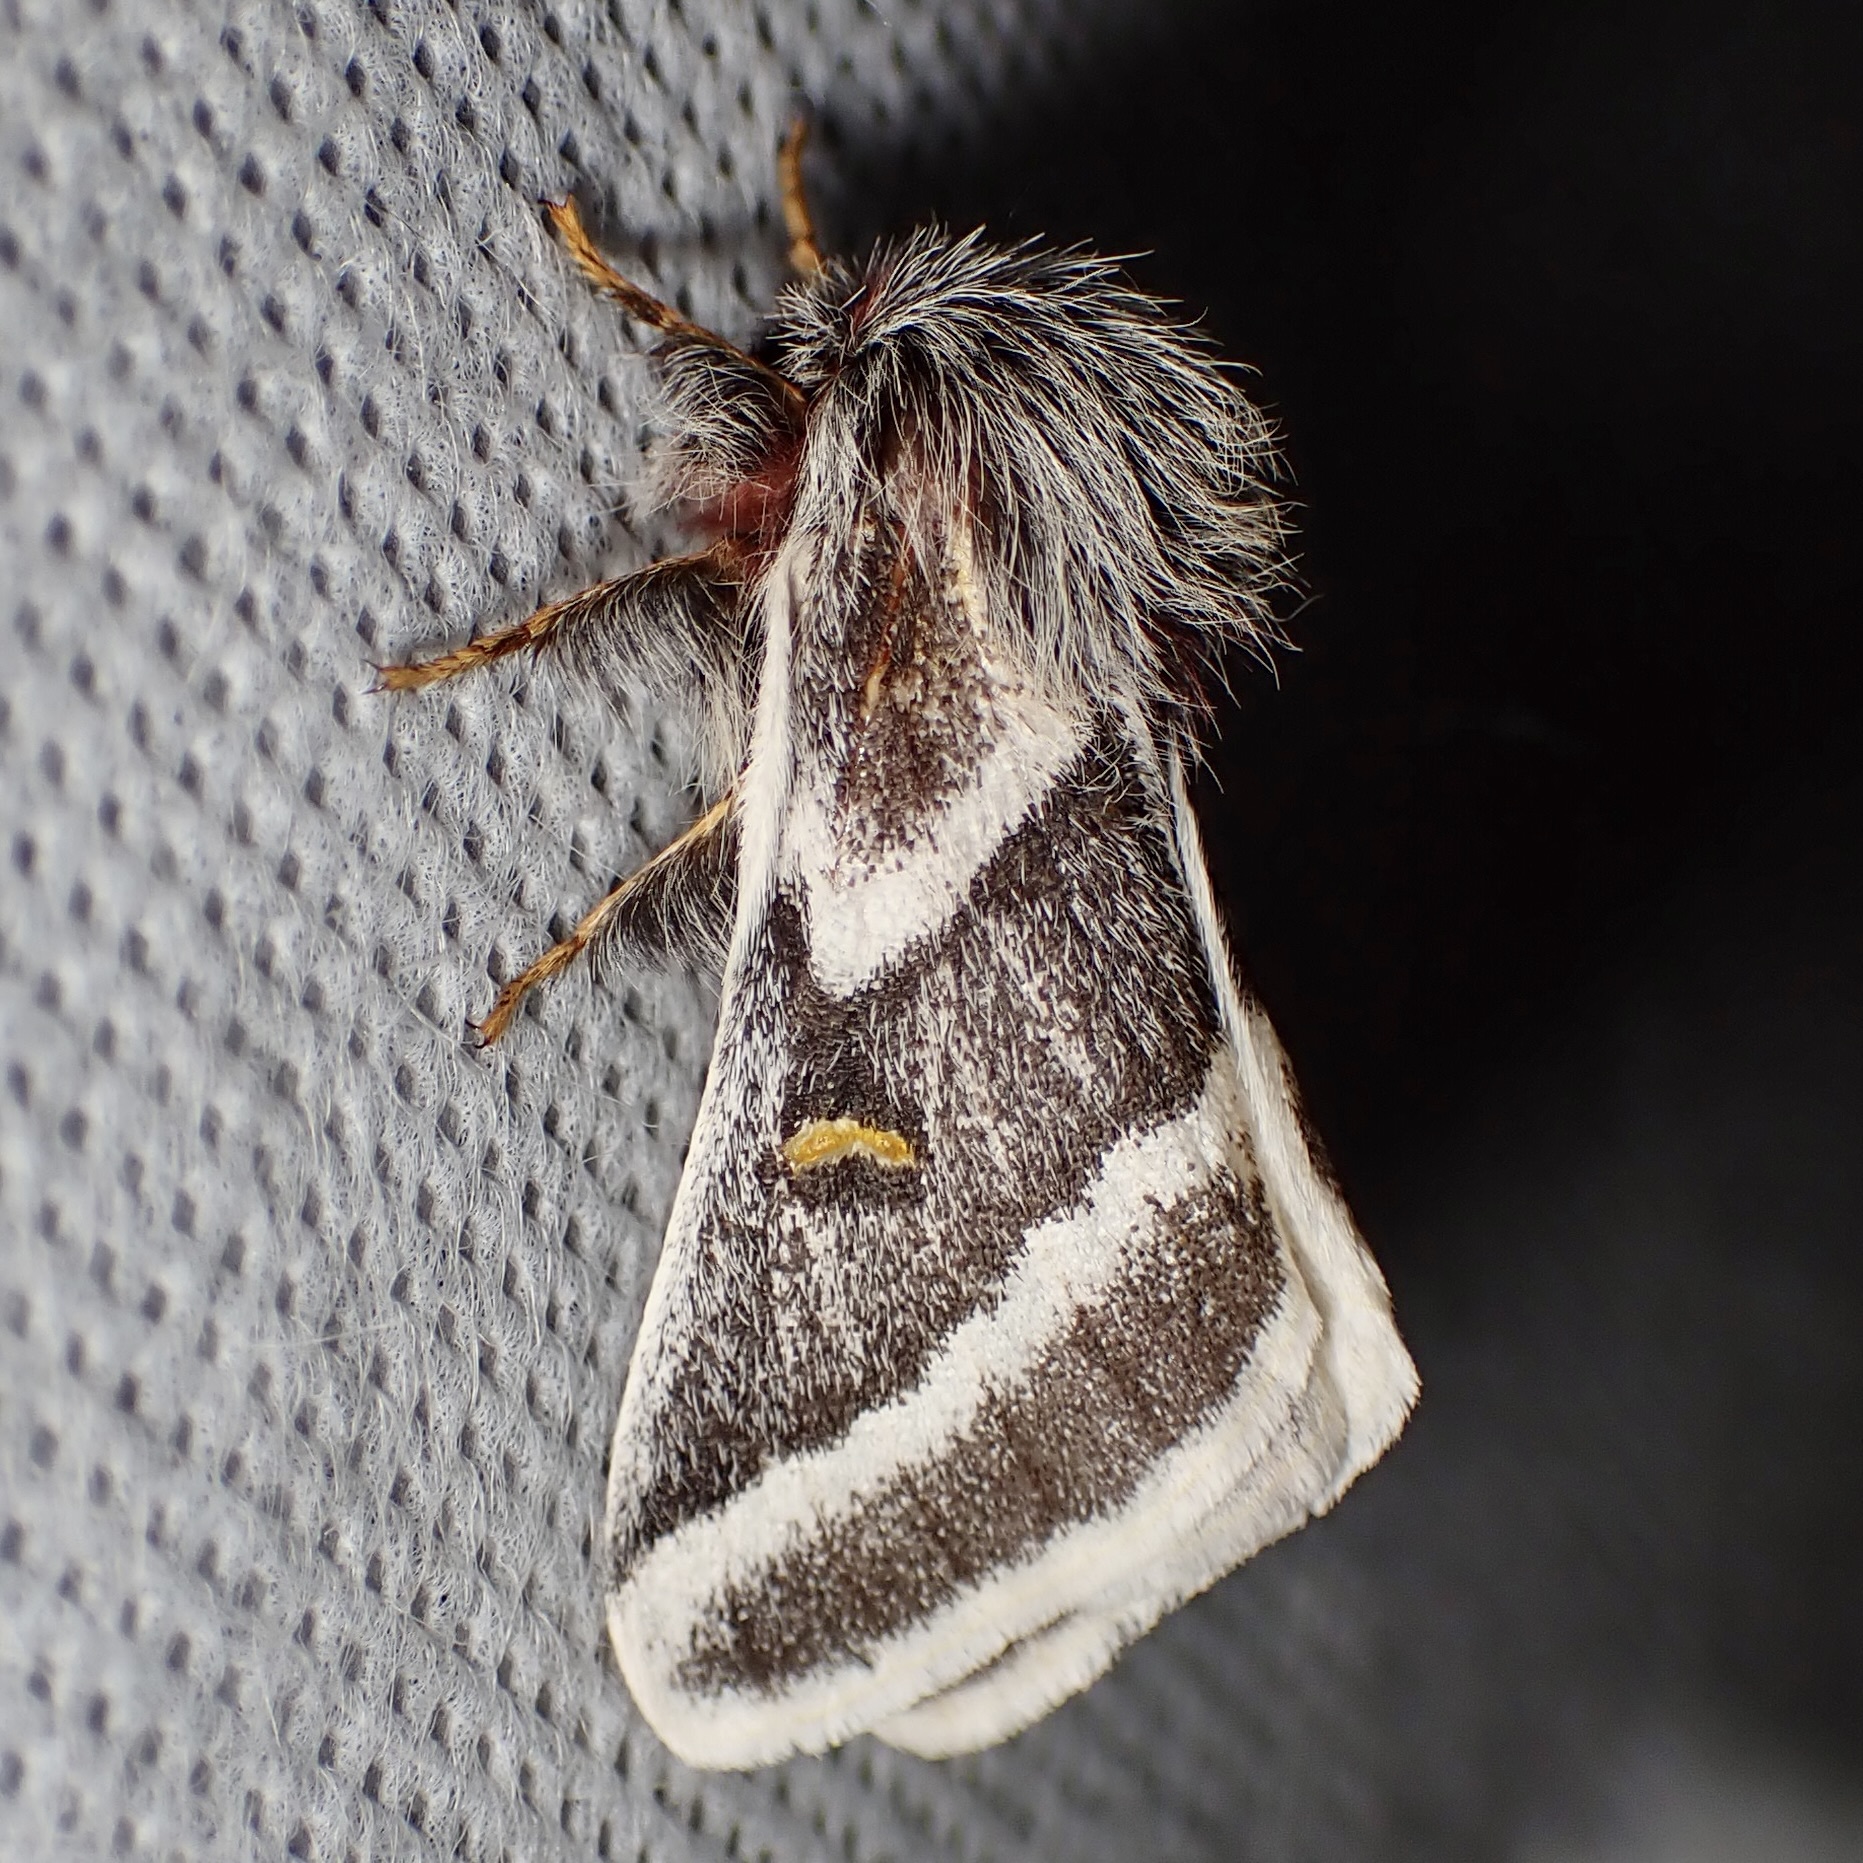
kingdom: Animalia
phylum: Arthropoda
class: Insecta
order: Lepidoptera
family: Saturniidae
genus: Hemileuca
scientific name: Hemileuca tricolor
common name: Tricolor buckmoth
